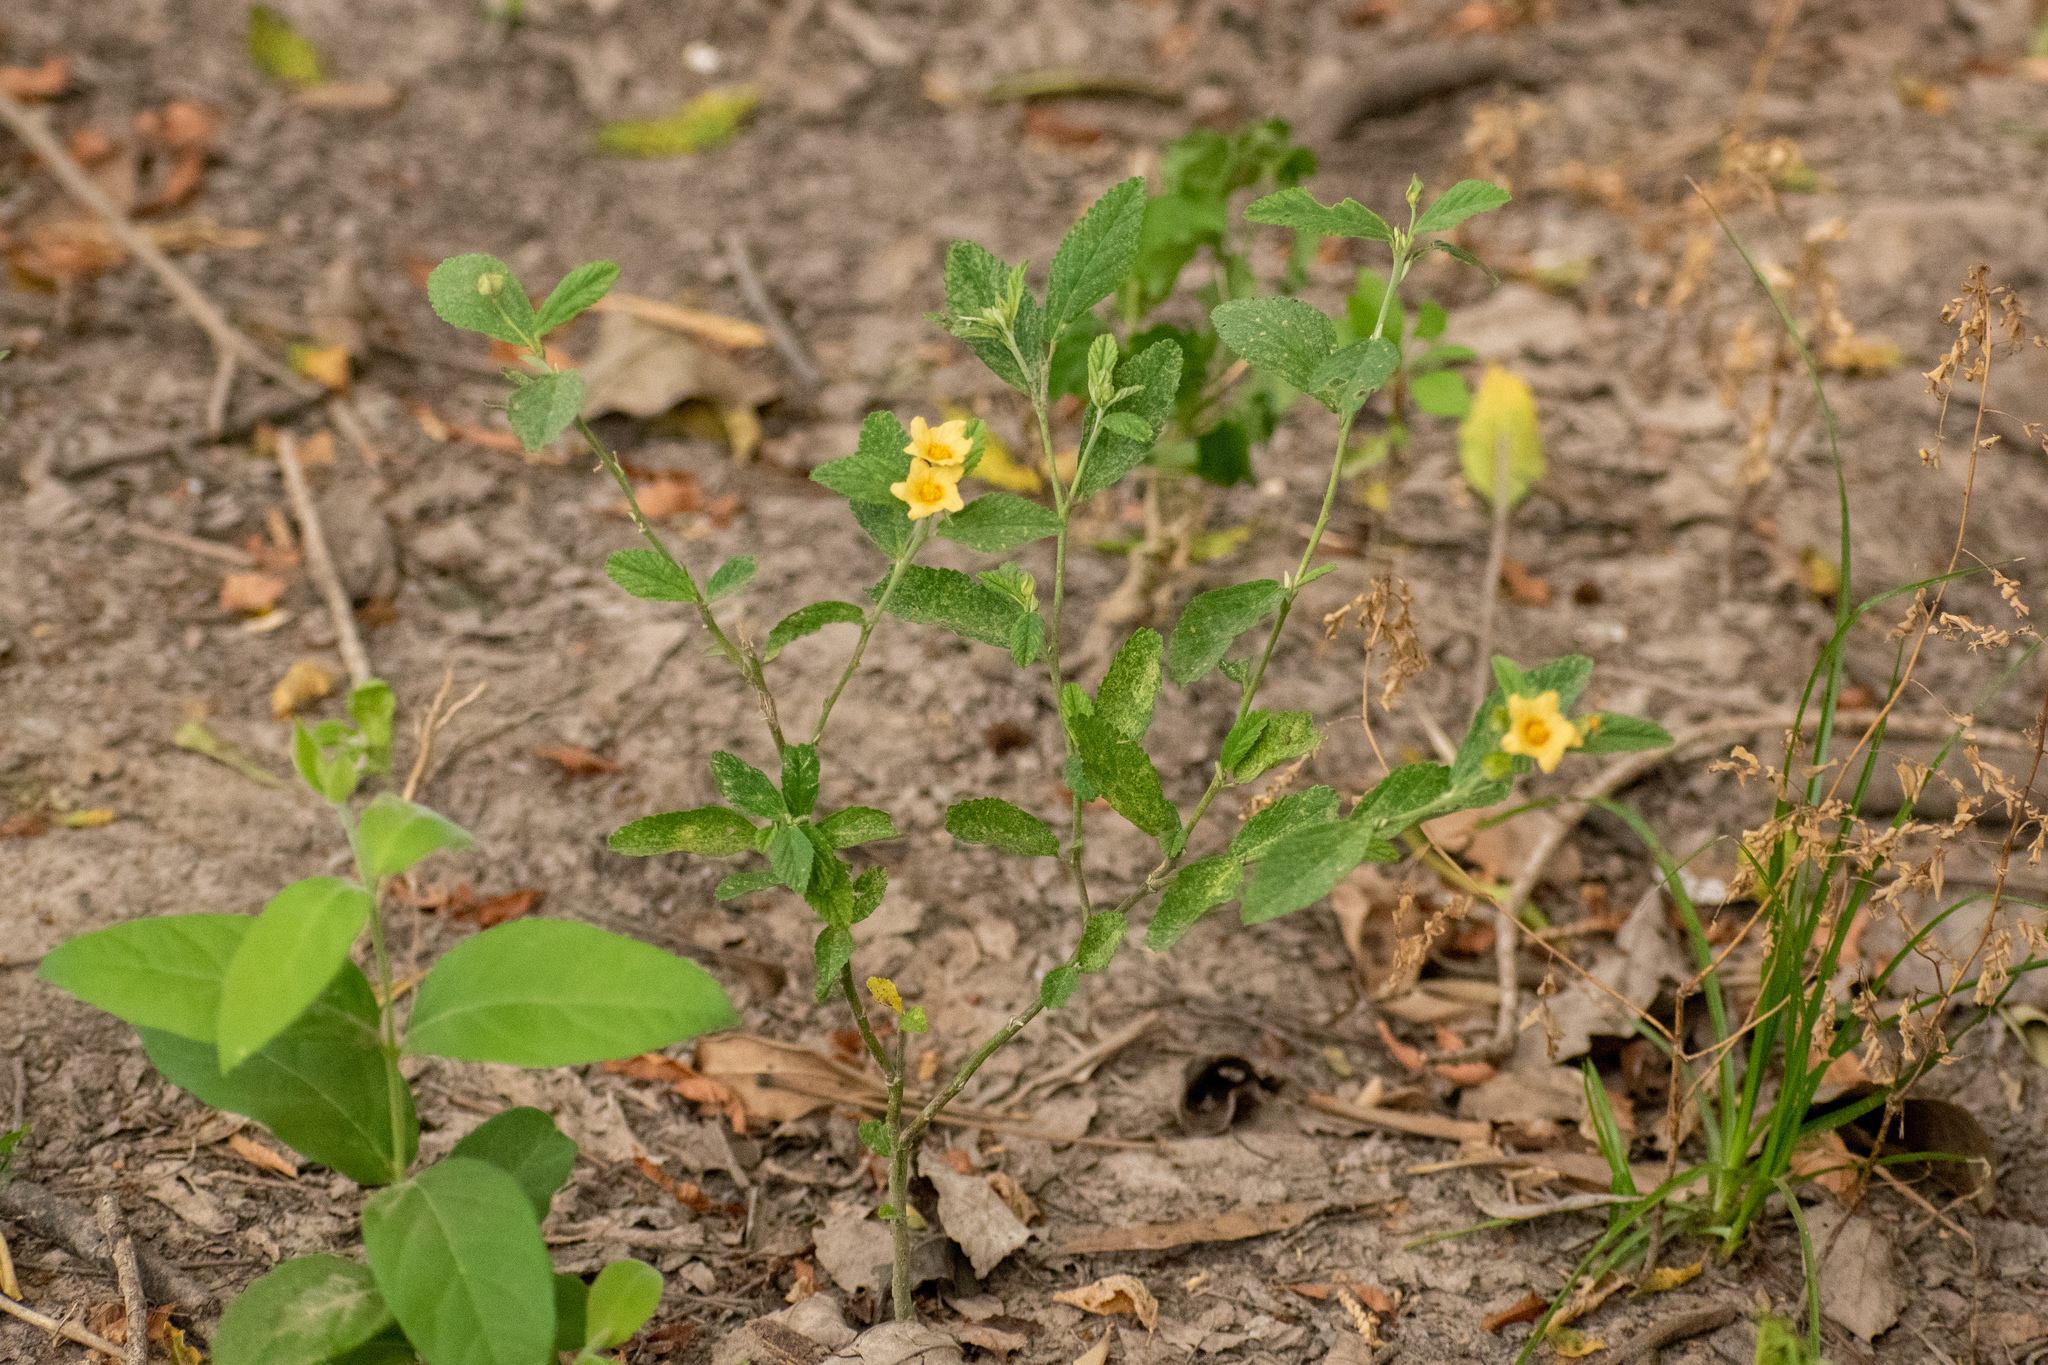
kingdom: Plantae
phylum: Tracheophyta
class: Magnoliopsida
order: Malvales
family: Malvaceae
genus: Sida
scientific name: Sida rhombifolia
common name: Queensland-hemp
